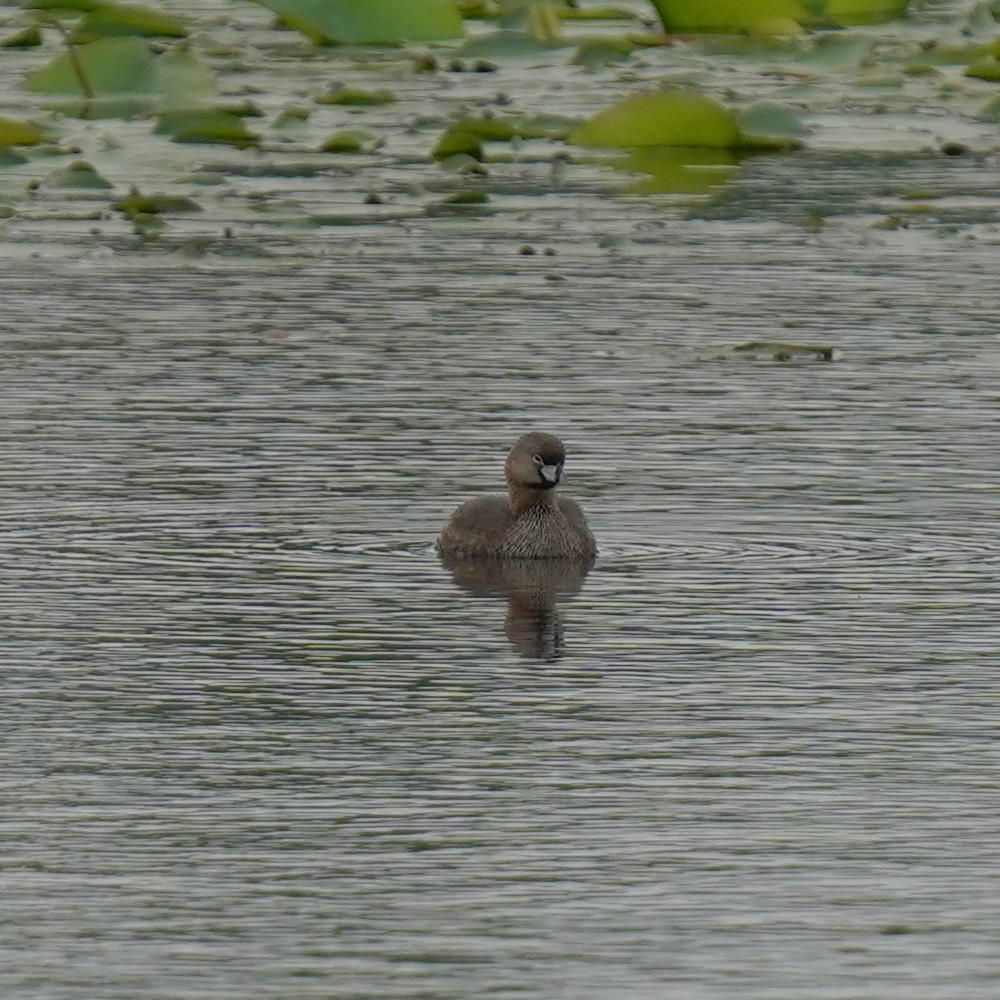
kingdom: Animalia
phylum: Chordata
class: Aves
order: Podicipediformes
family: Podicipedidae
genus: Podilymbus
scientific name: Podilymbus podiceps
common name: Pied-billed grebe
